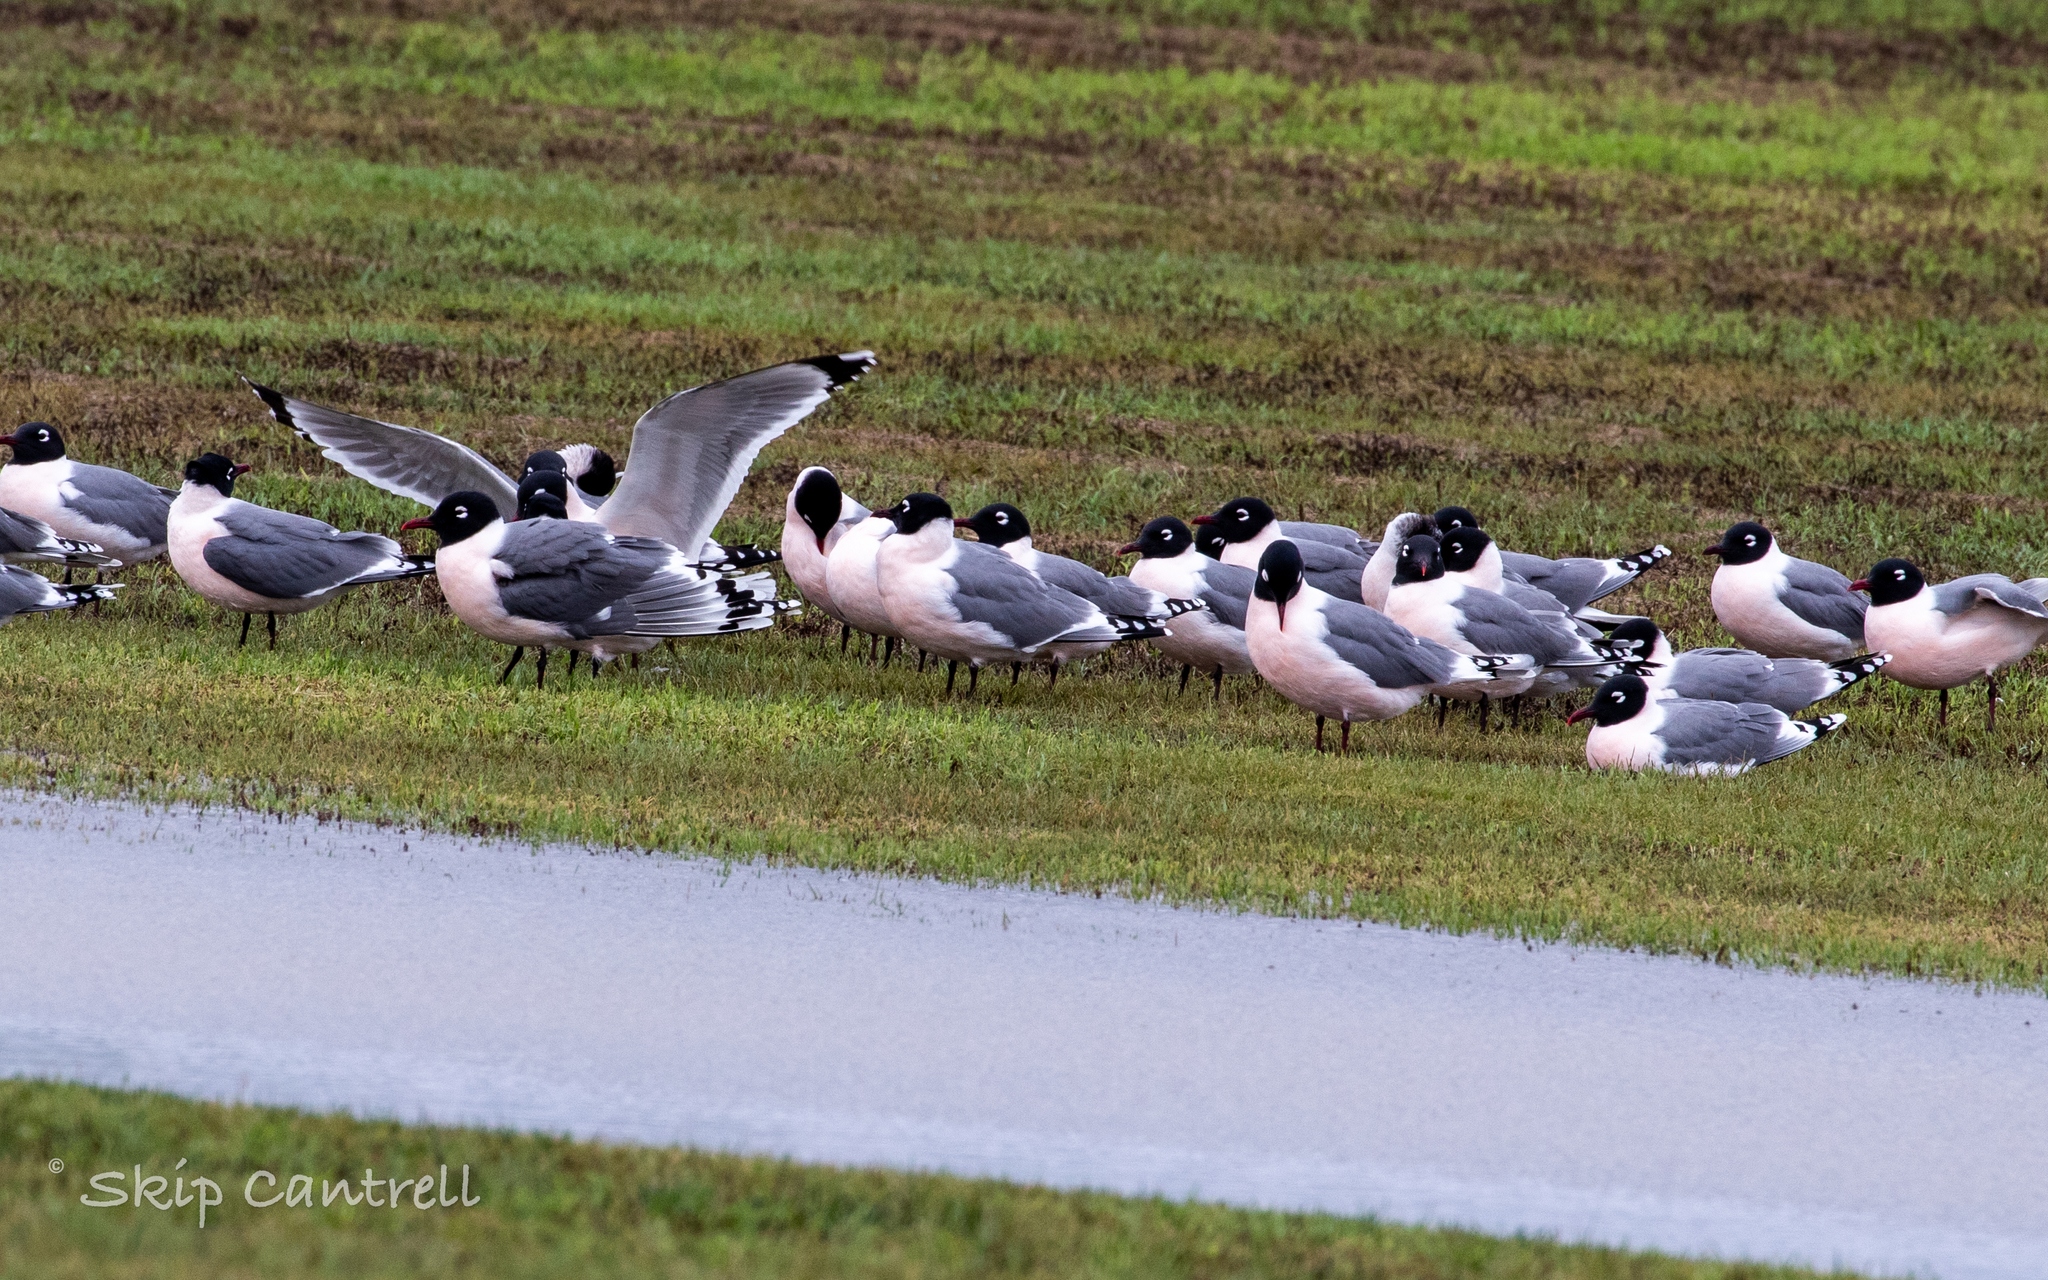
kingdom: Animalia
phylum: Chordata
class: Aves
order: Charadriiformes
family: Laridae
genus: Leucophaeus
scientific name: Leucophaeus pipixcan
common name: Franklin's gull
